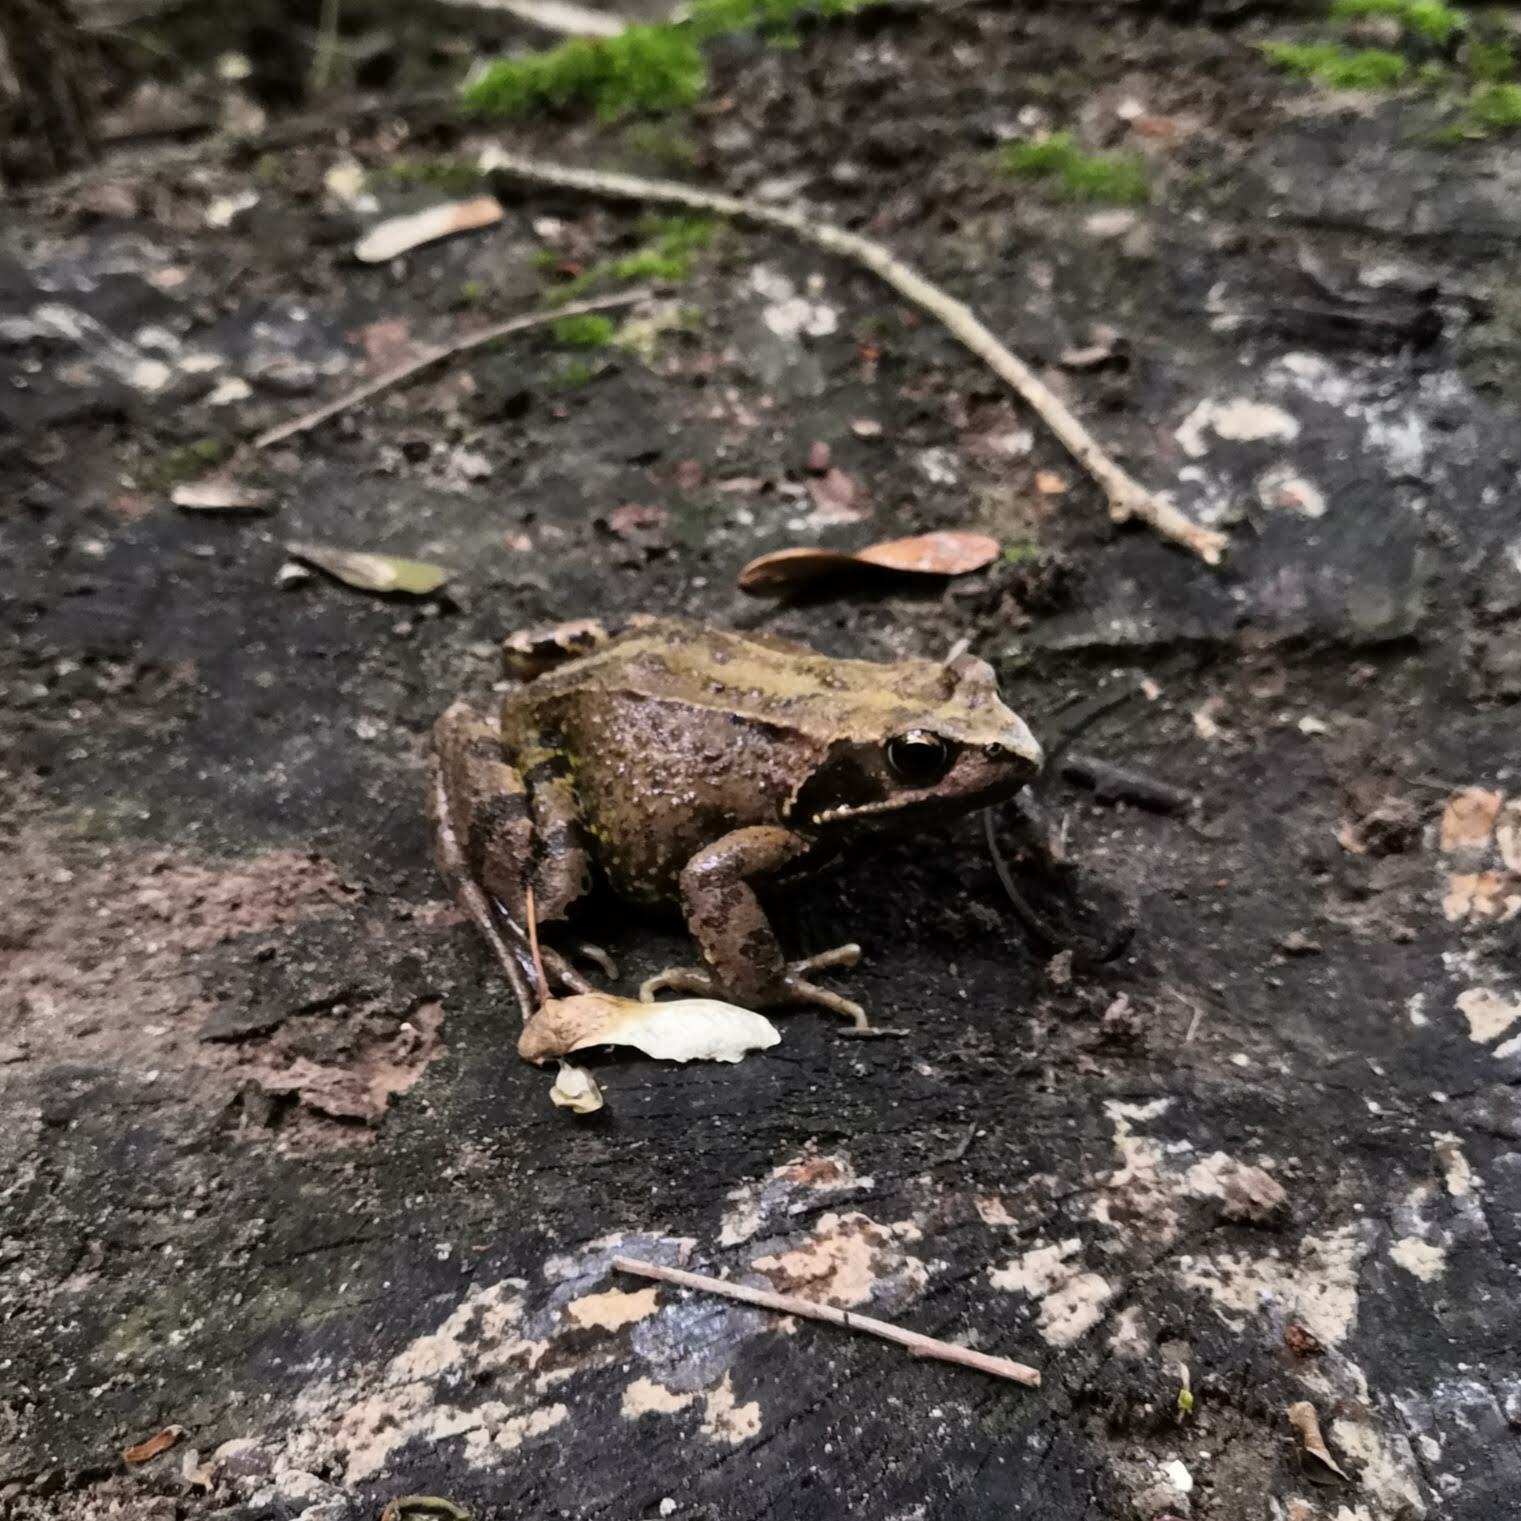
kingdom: Animalia
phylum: Chordata
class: Amphibia
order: Anura
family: Ranidae
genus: Rana
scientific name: Rana temporaria
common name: Common frog
